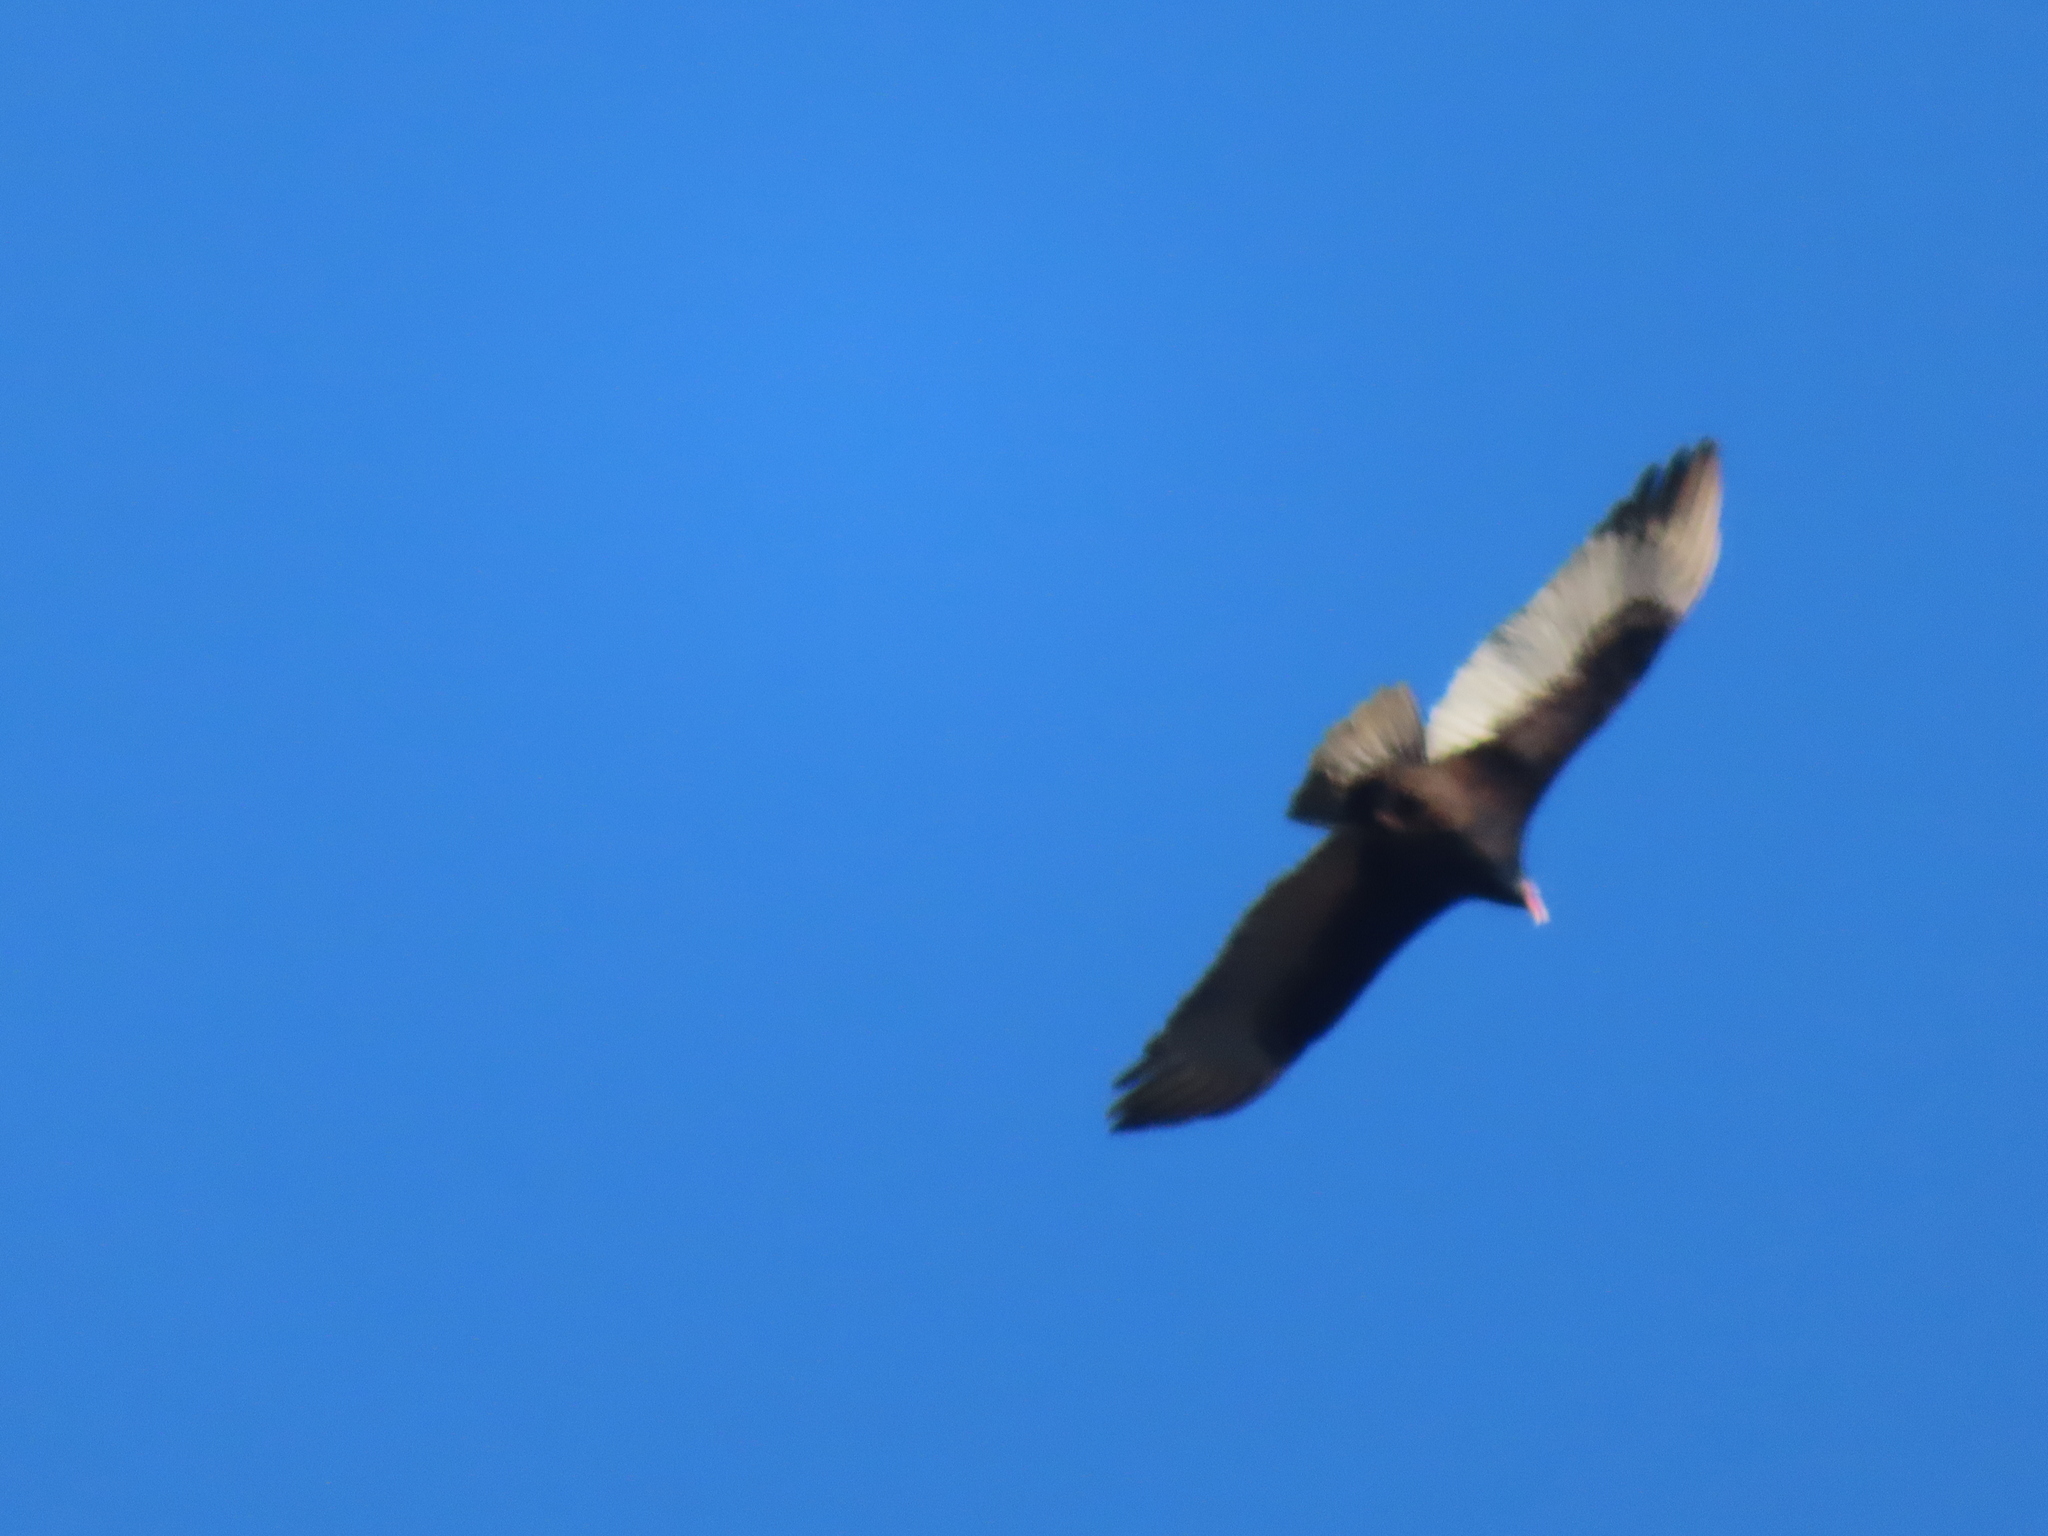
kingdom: Animalia
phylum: Chordata
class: Aves
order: Accipitriformes
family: Cathartidae
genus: Cathartes
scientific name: Cathartes aura
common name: Turkey vulture
